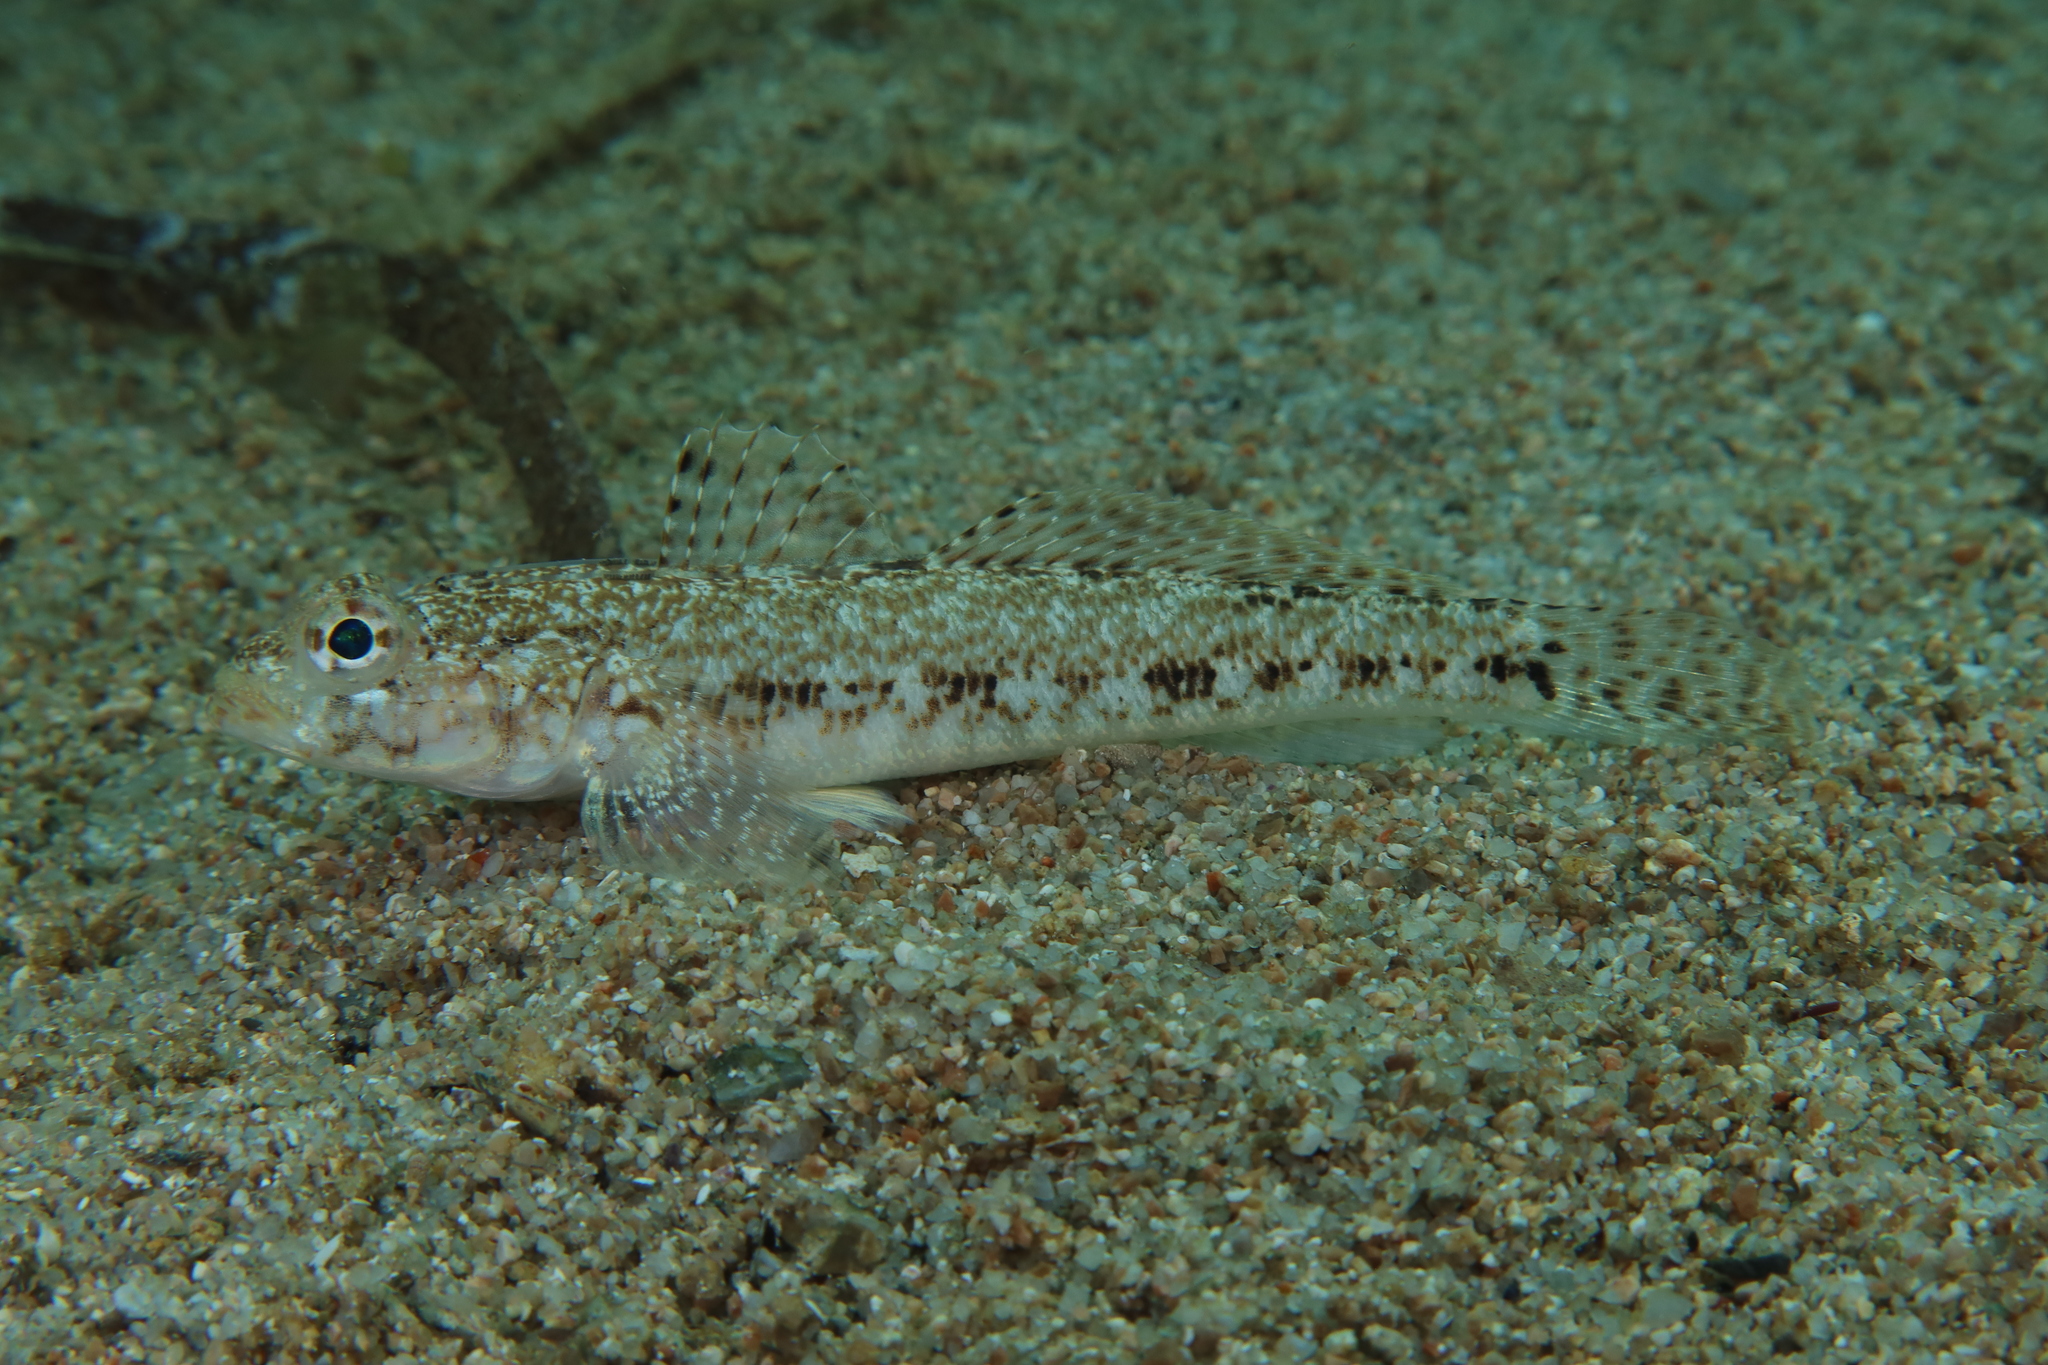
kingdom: Animalia
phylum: Chordata
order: Perciformes
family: Gobiidae
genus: Gobius
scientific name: Gobius geniporus
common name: Slender goby
